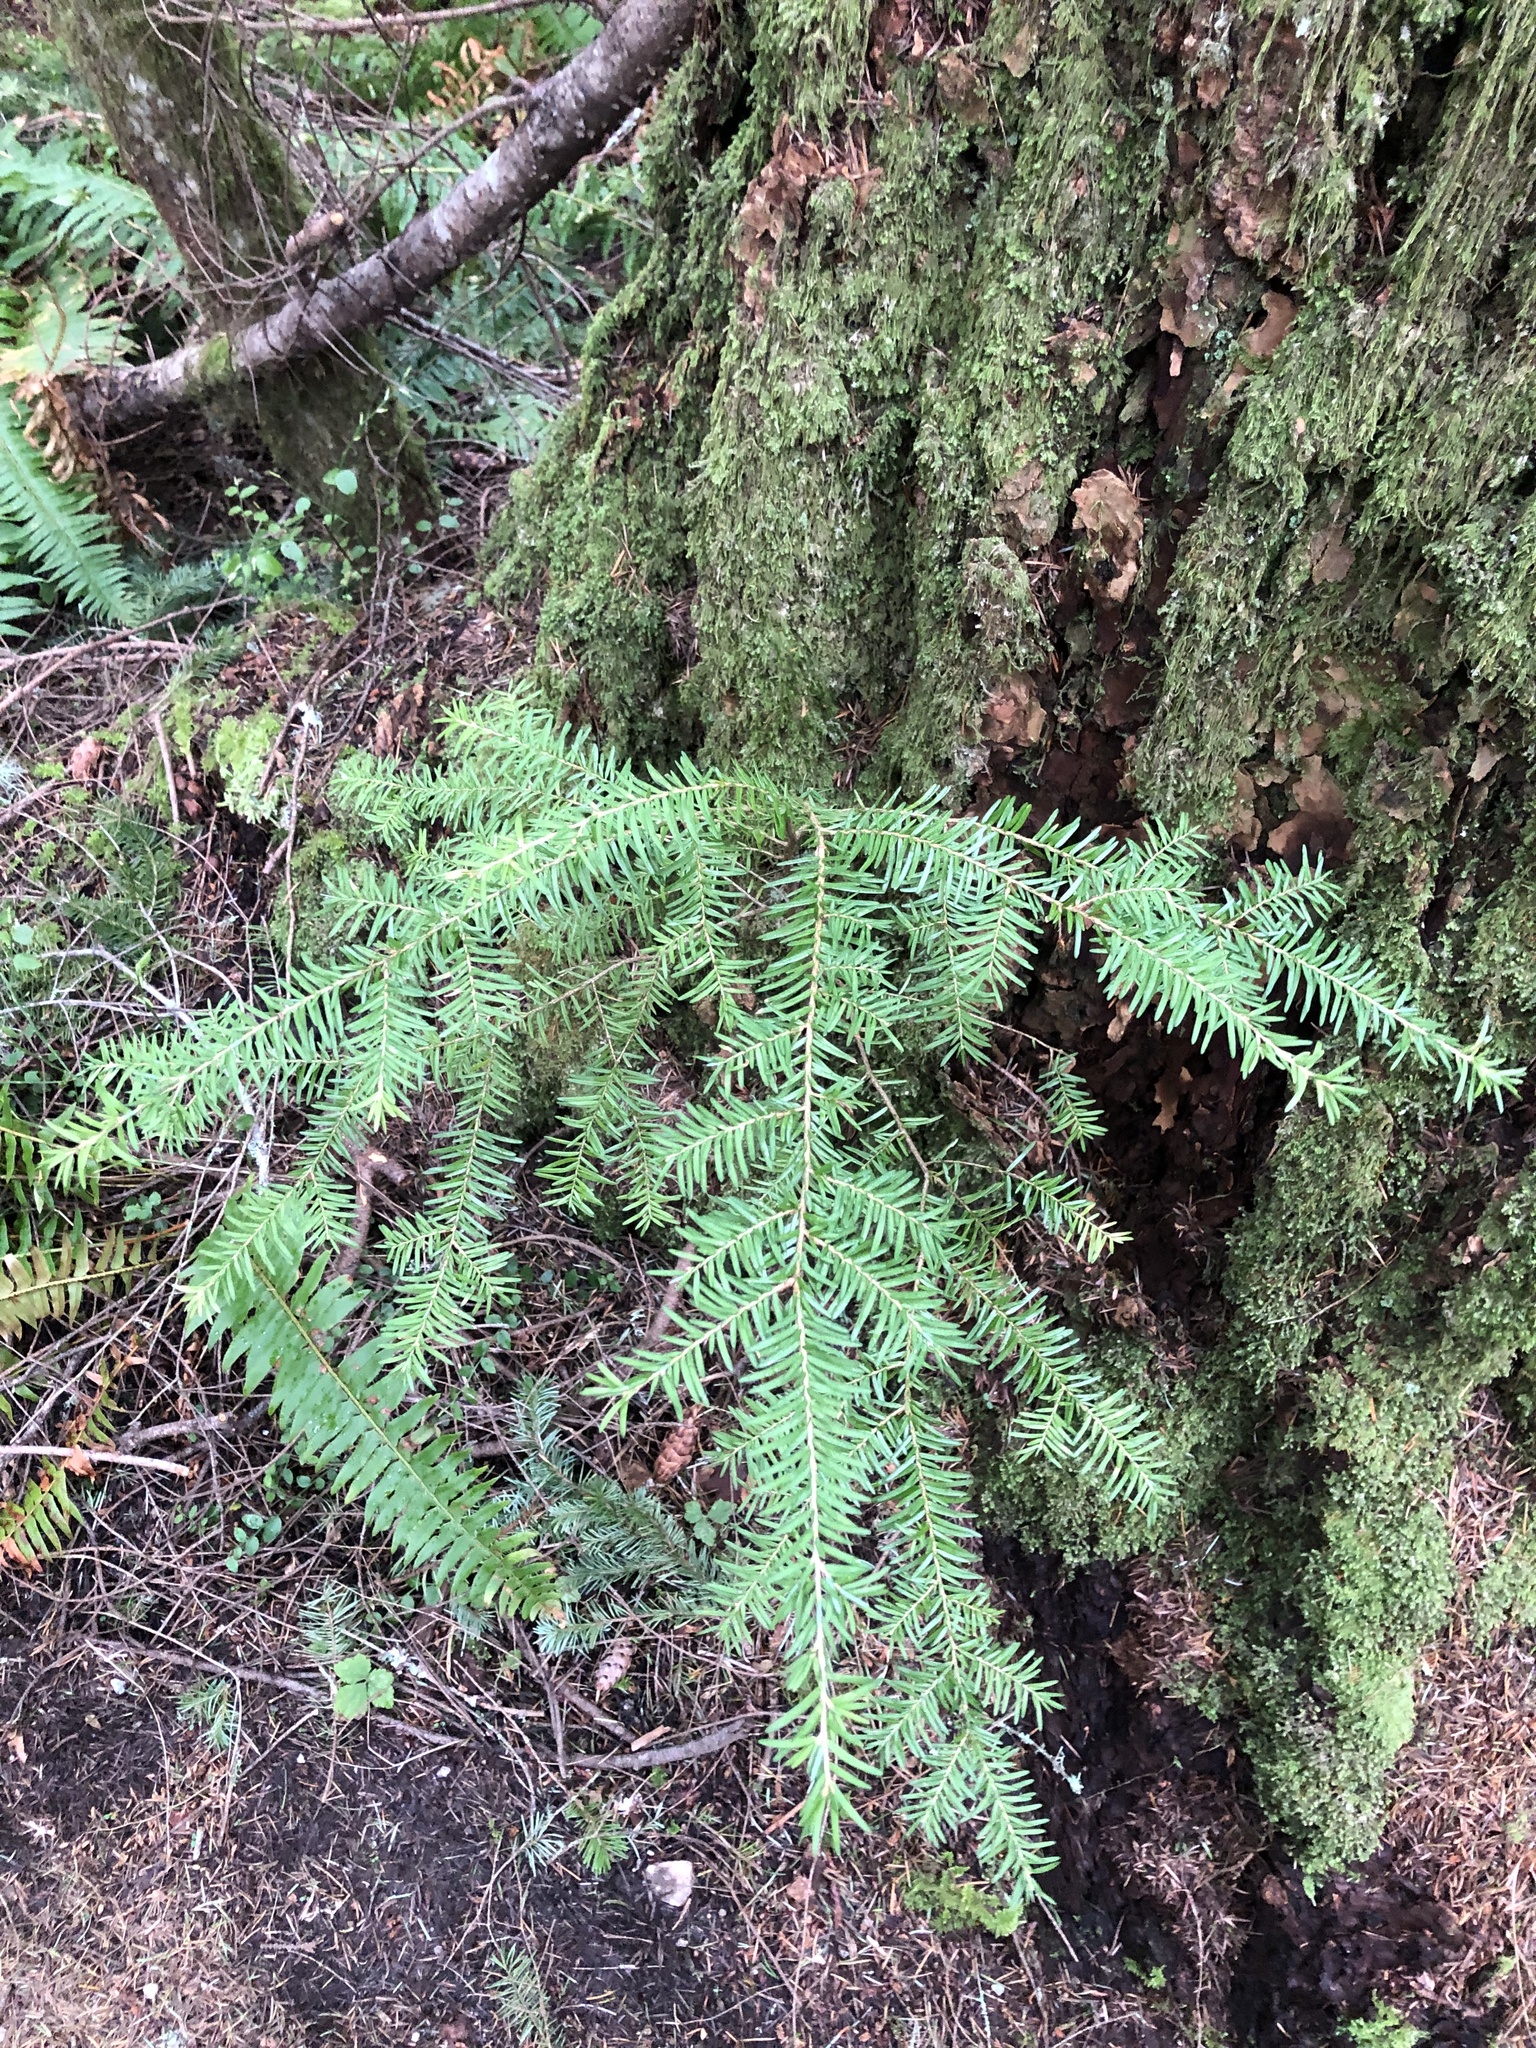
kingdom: Plantae
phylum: Tracheophyta
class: Pinopsida
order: Pinales
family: Pinaceae
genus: Tsuga
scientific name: Tsuga heterophylla
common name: Western hemlock
